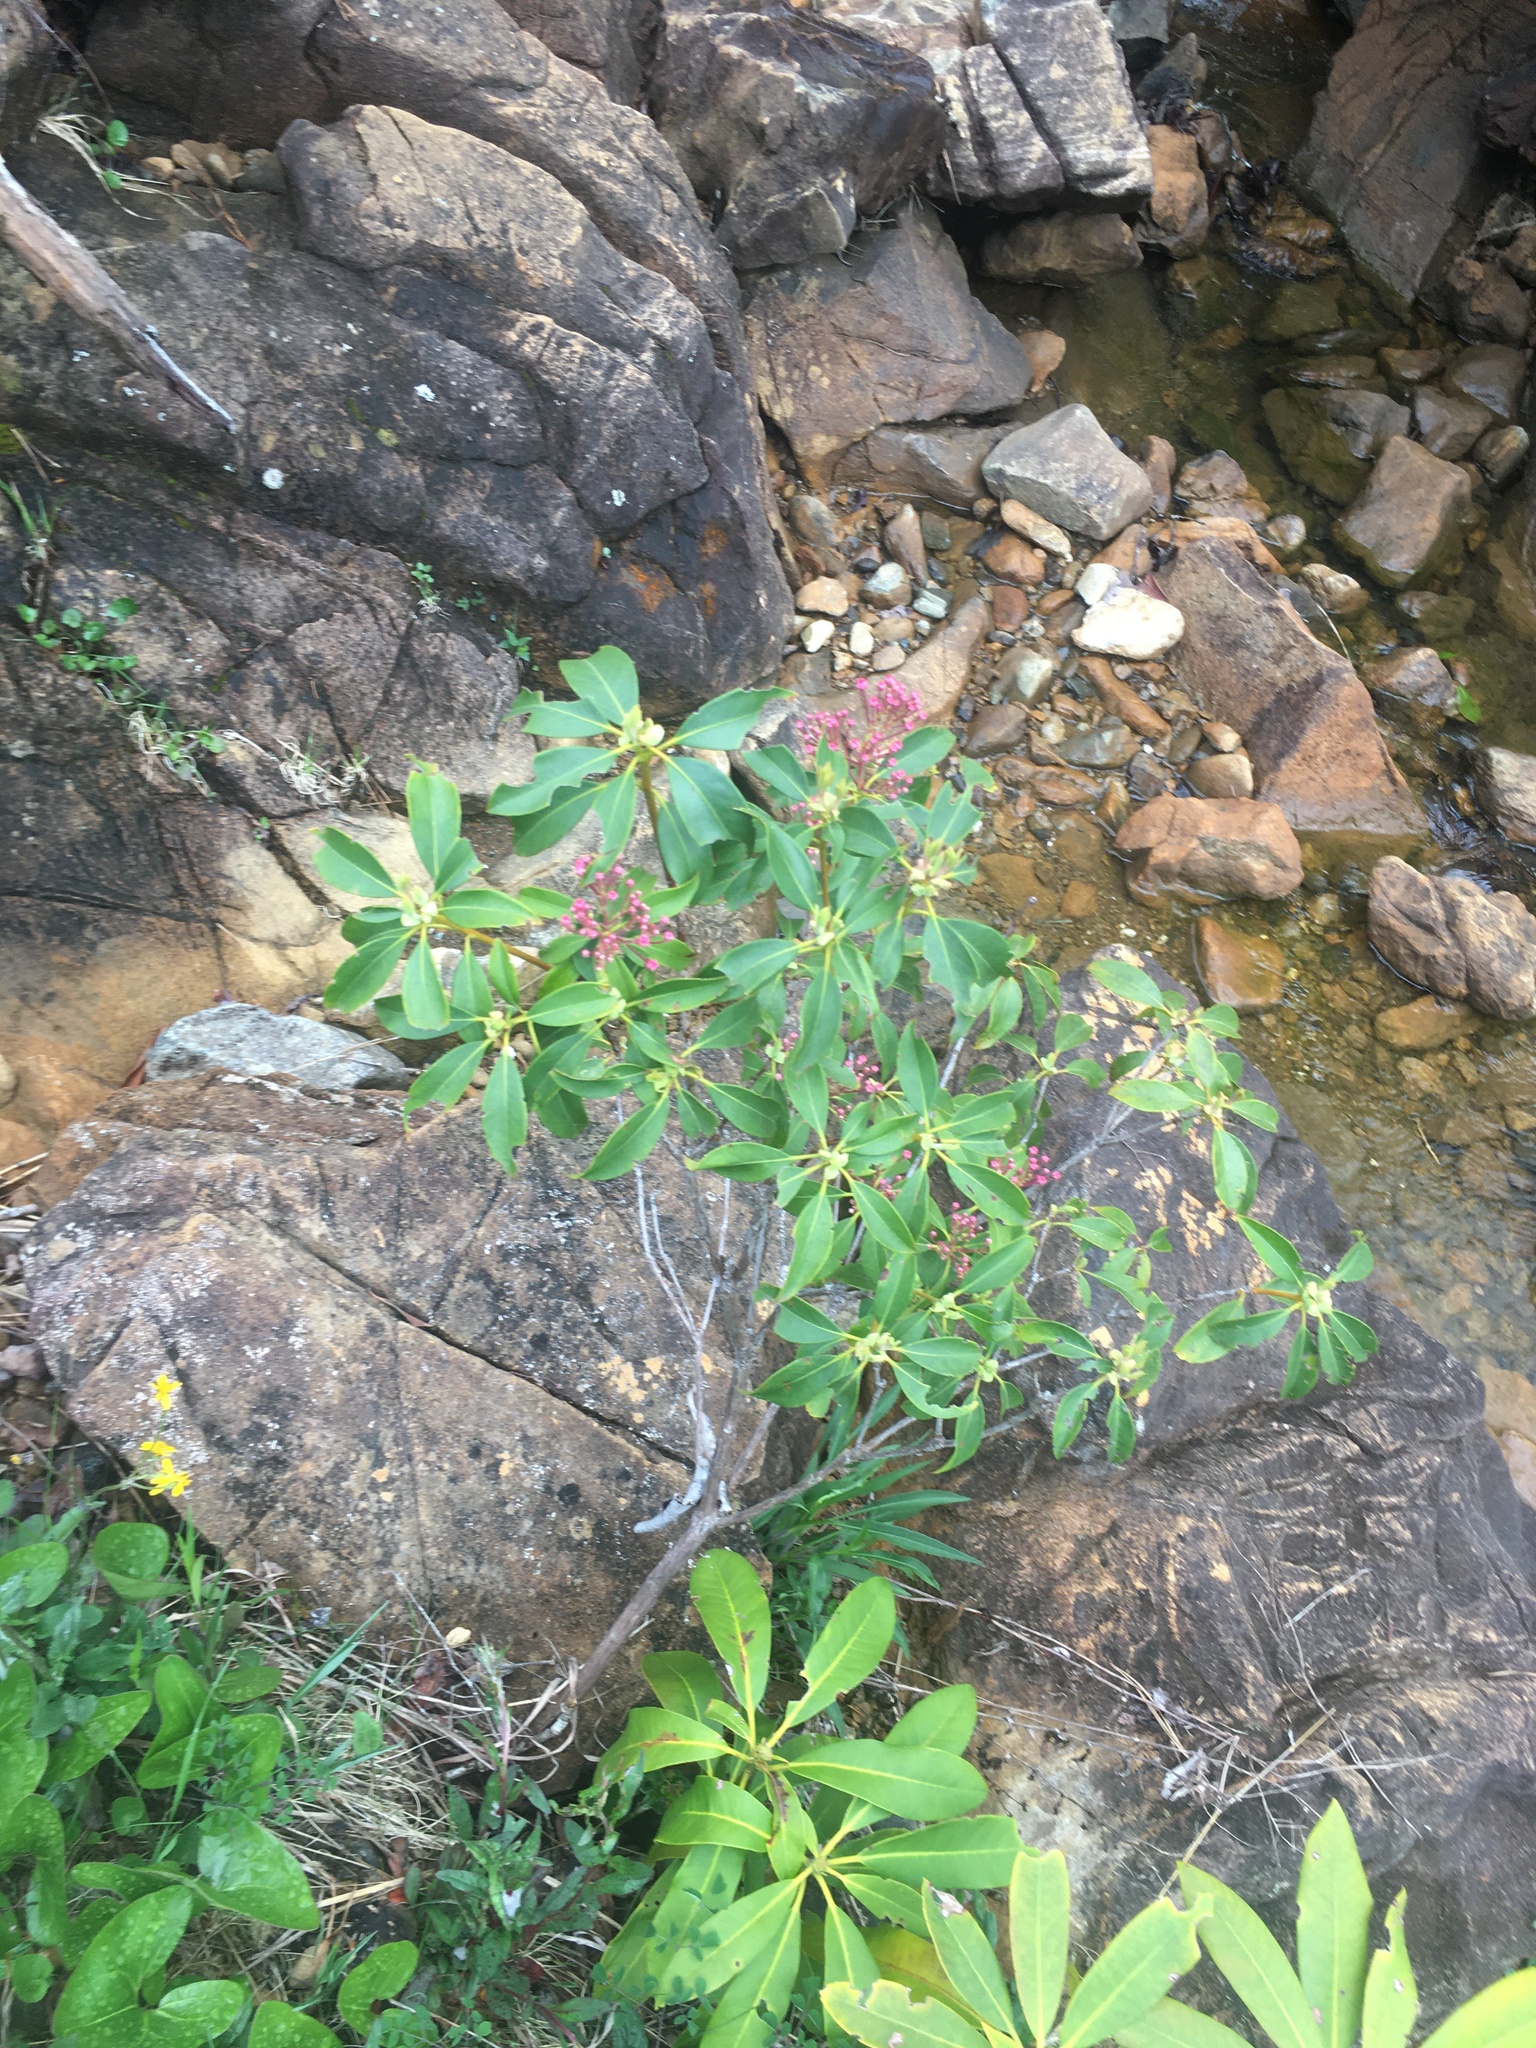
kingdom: Plantae
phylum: Tracheophyta
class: Magnoliopsida
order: Ericales
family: Ericaceae
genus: Kalmia
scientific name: Kalmia latifolia
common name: Mountain-laurel
